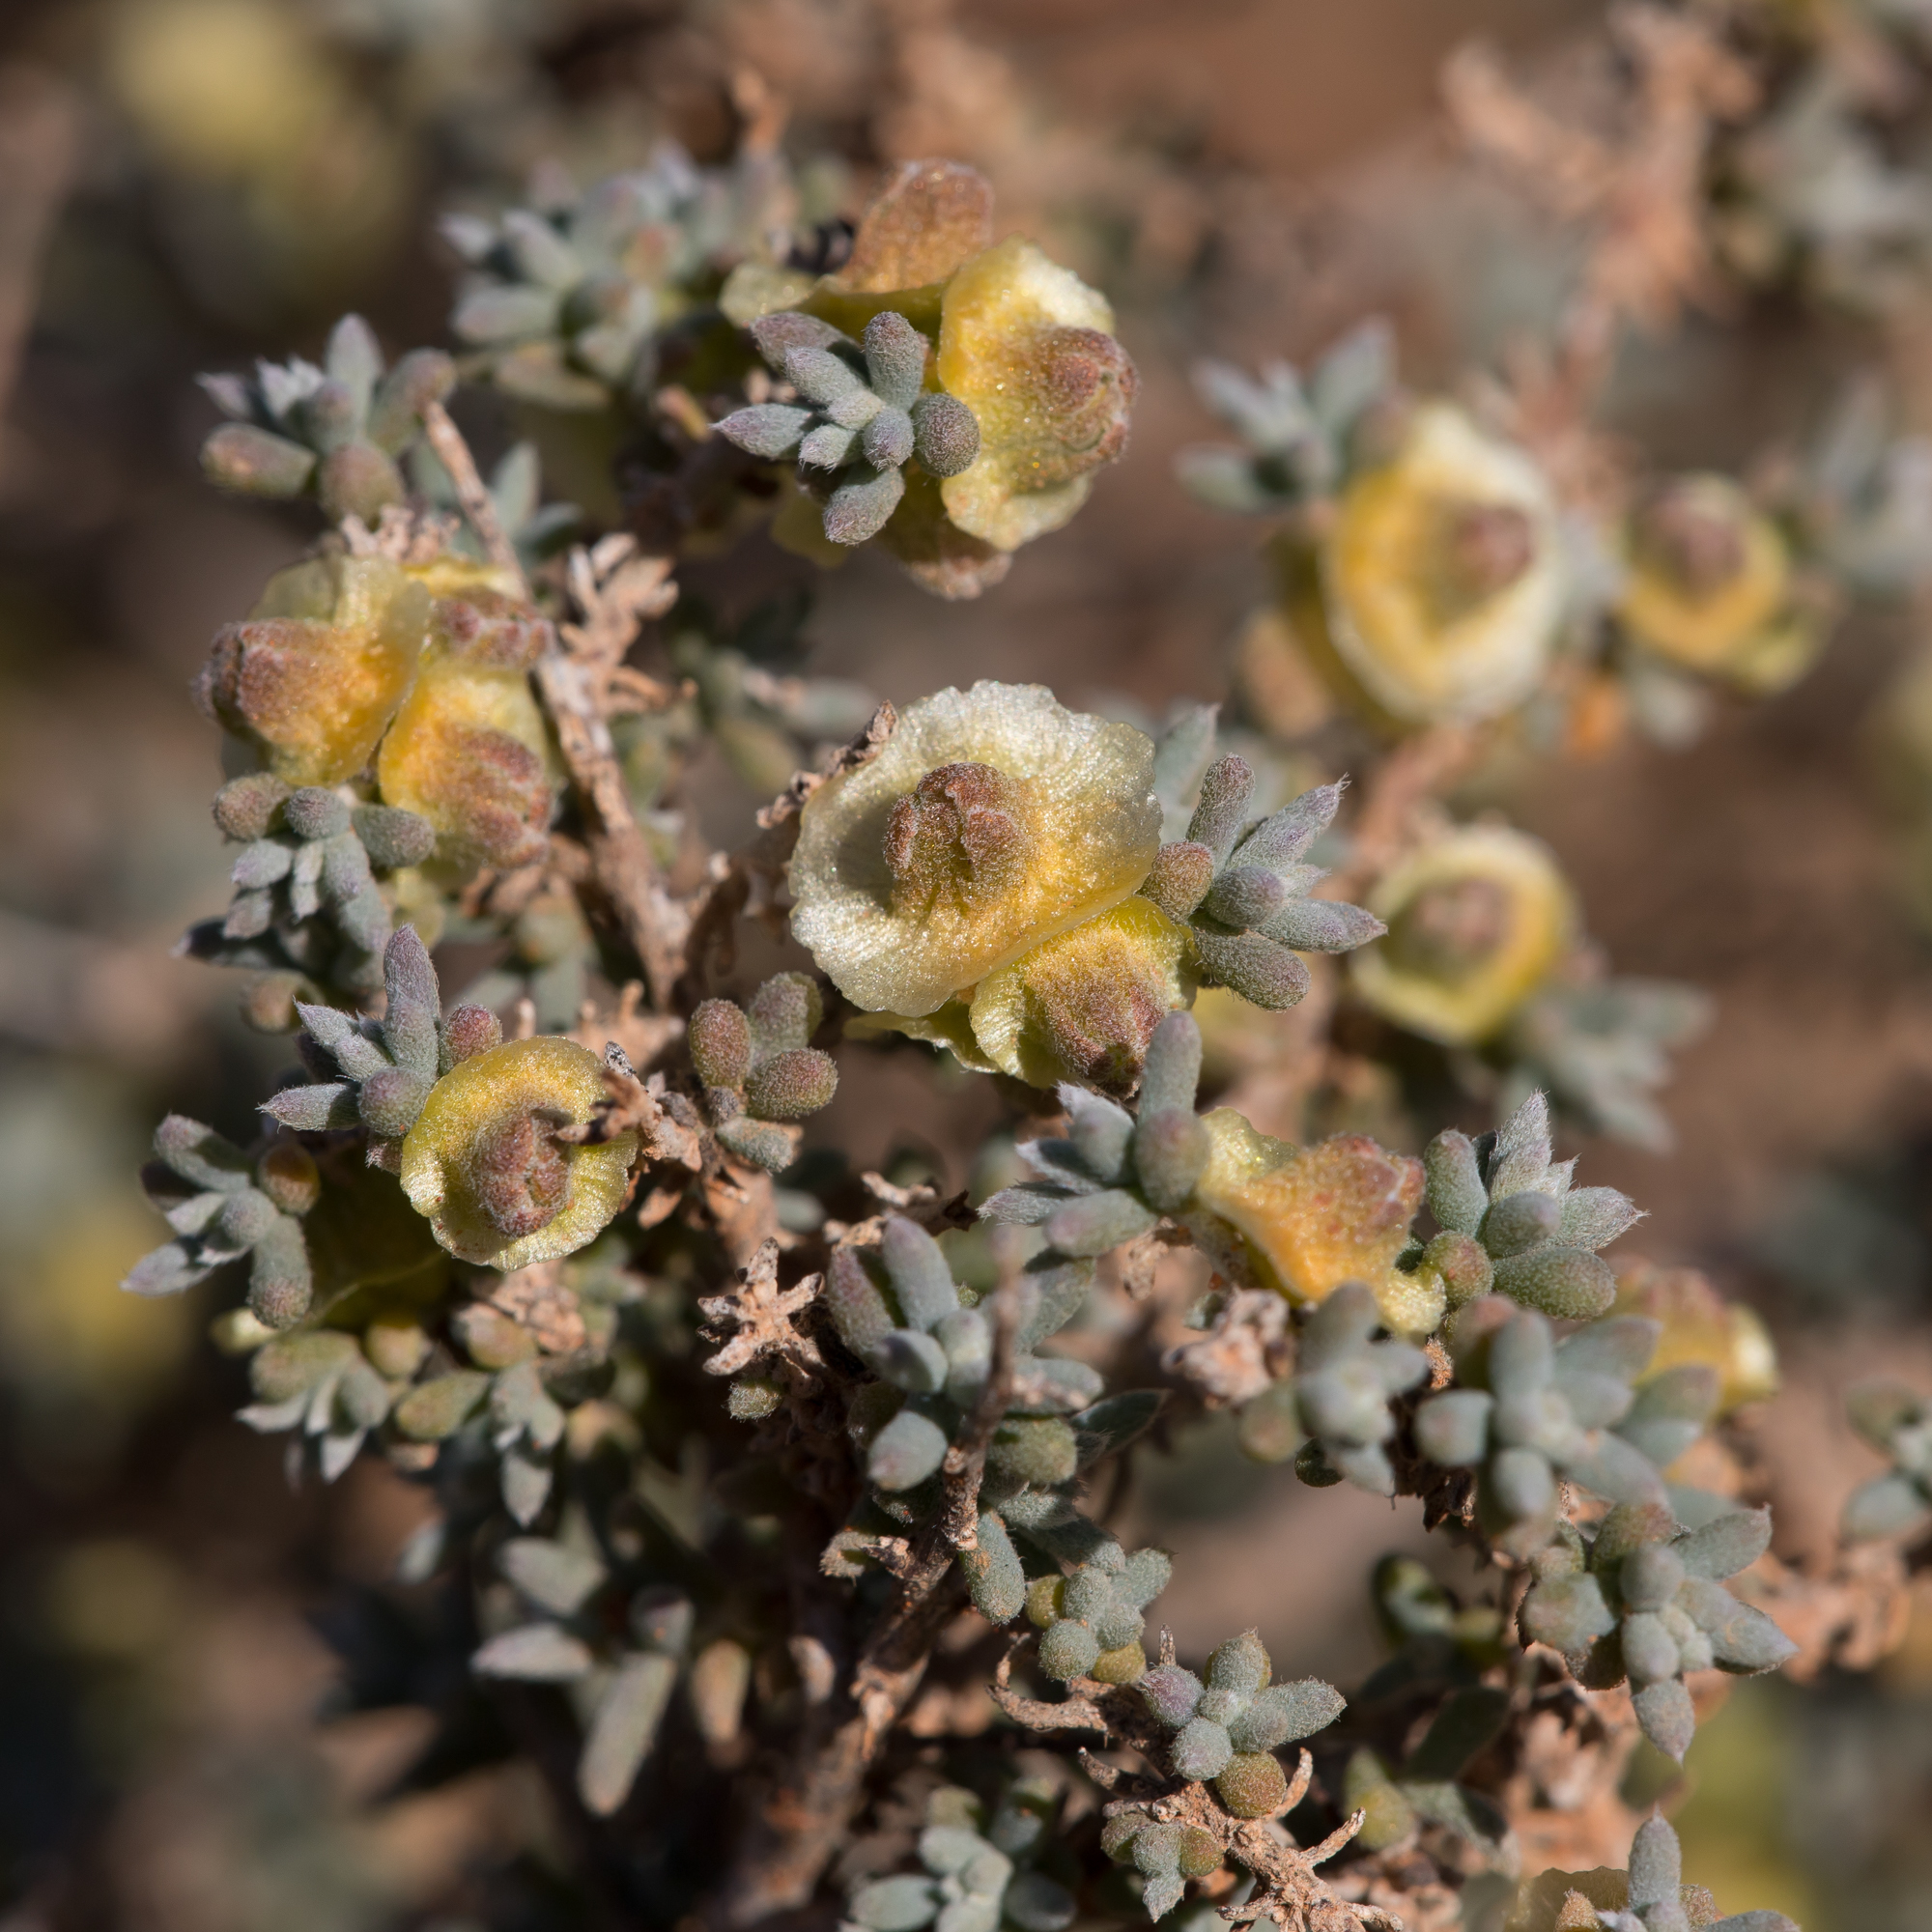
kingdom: Plantae
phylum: Tracheophyta
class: Magnoliopsida
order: Caryophyllales
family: Amaranthaceae
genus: Maireana
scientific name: Maireana pyramidata
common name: Sagobush
